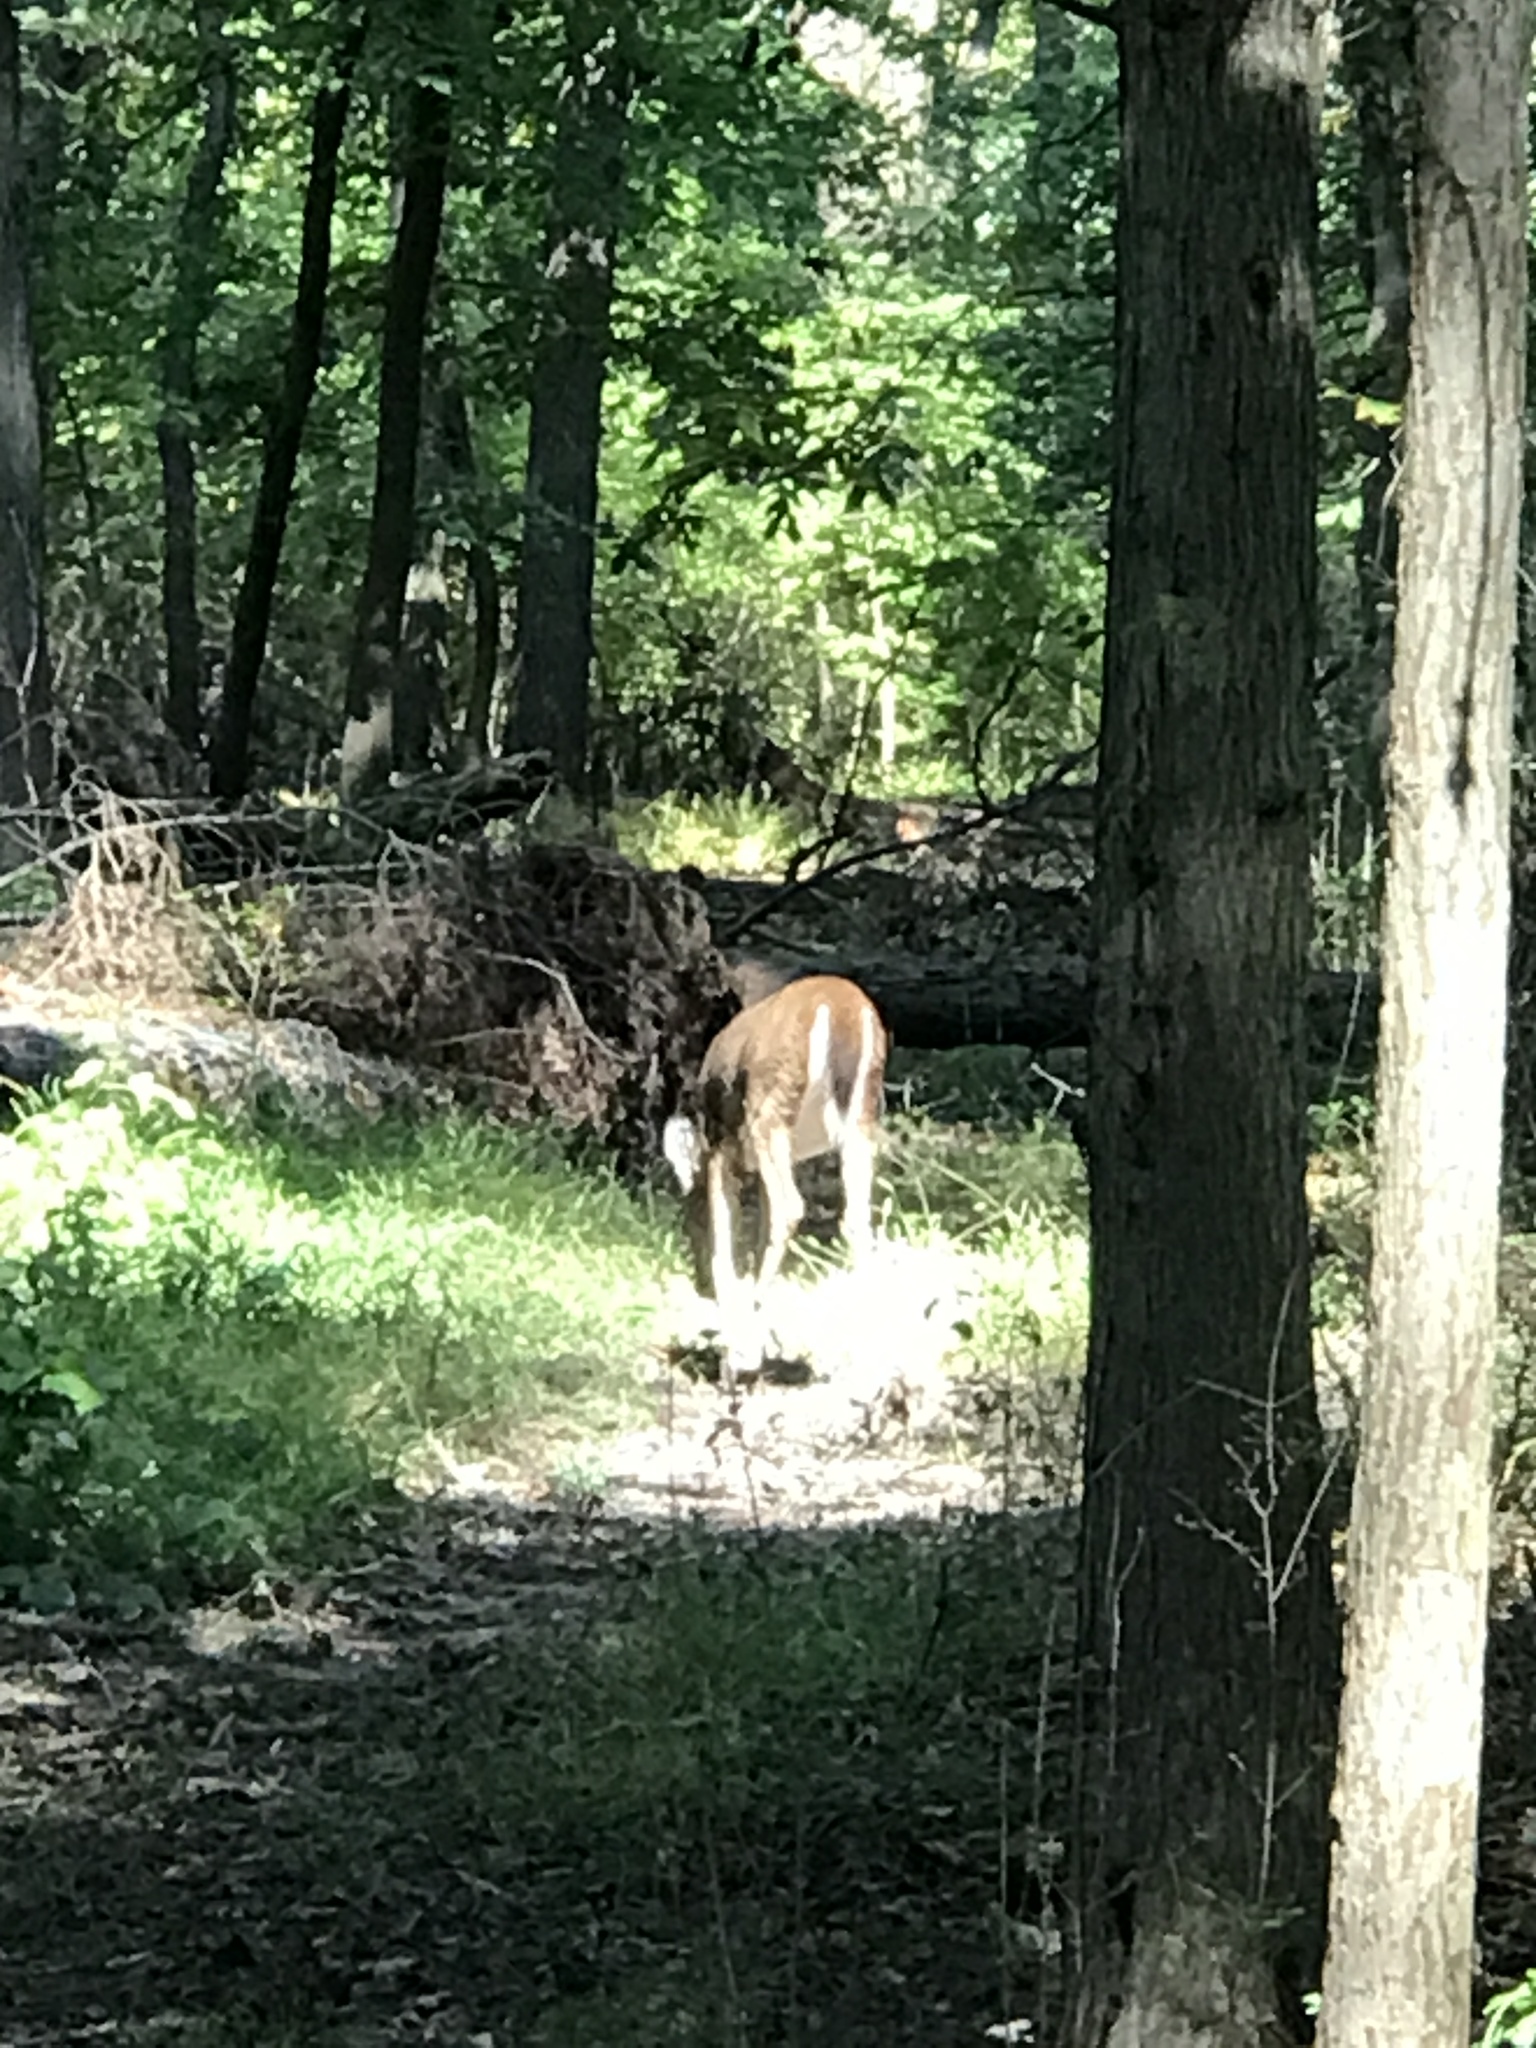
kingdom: Animalia
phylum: Chordata
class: Mammalia
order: Artiodactyla
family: Cervidae
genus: Odocoileus
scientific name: Odocoileus virginianus
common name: White-tailed deer
